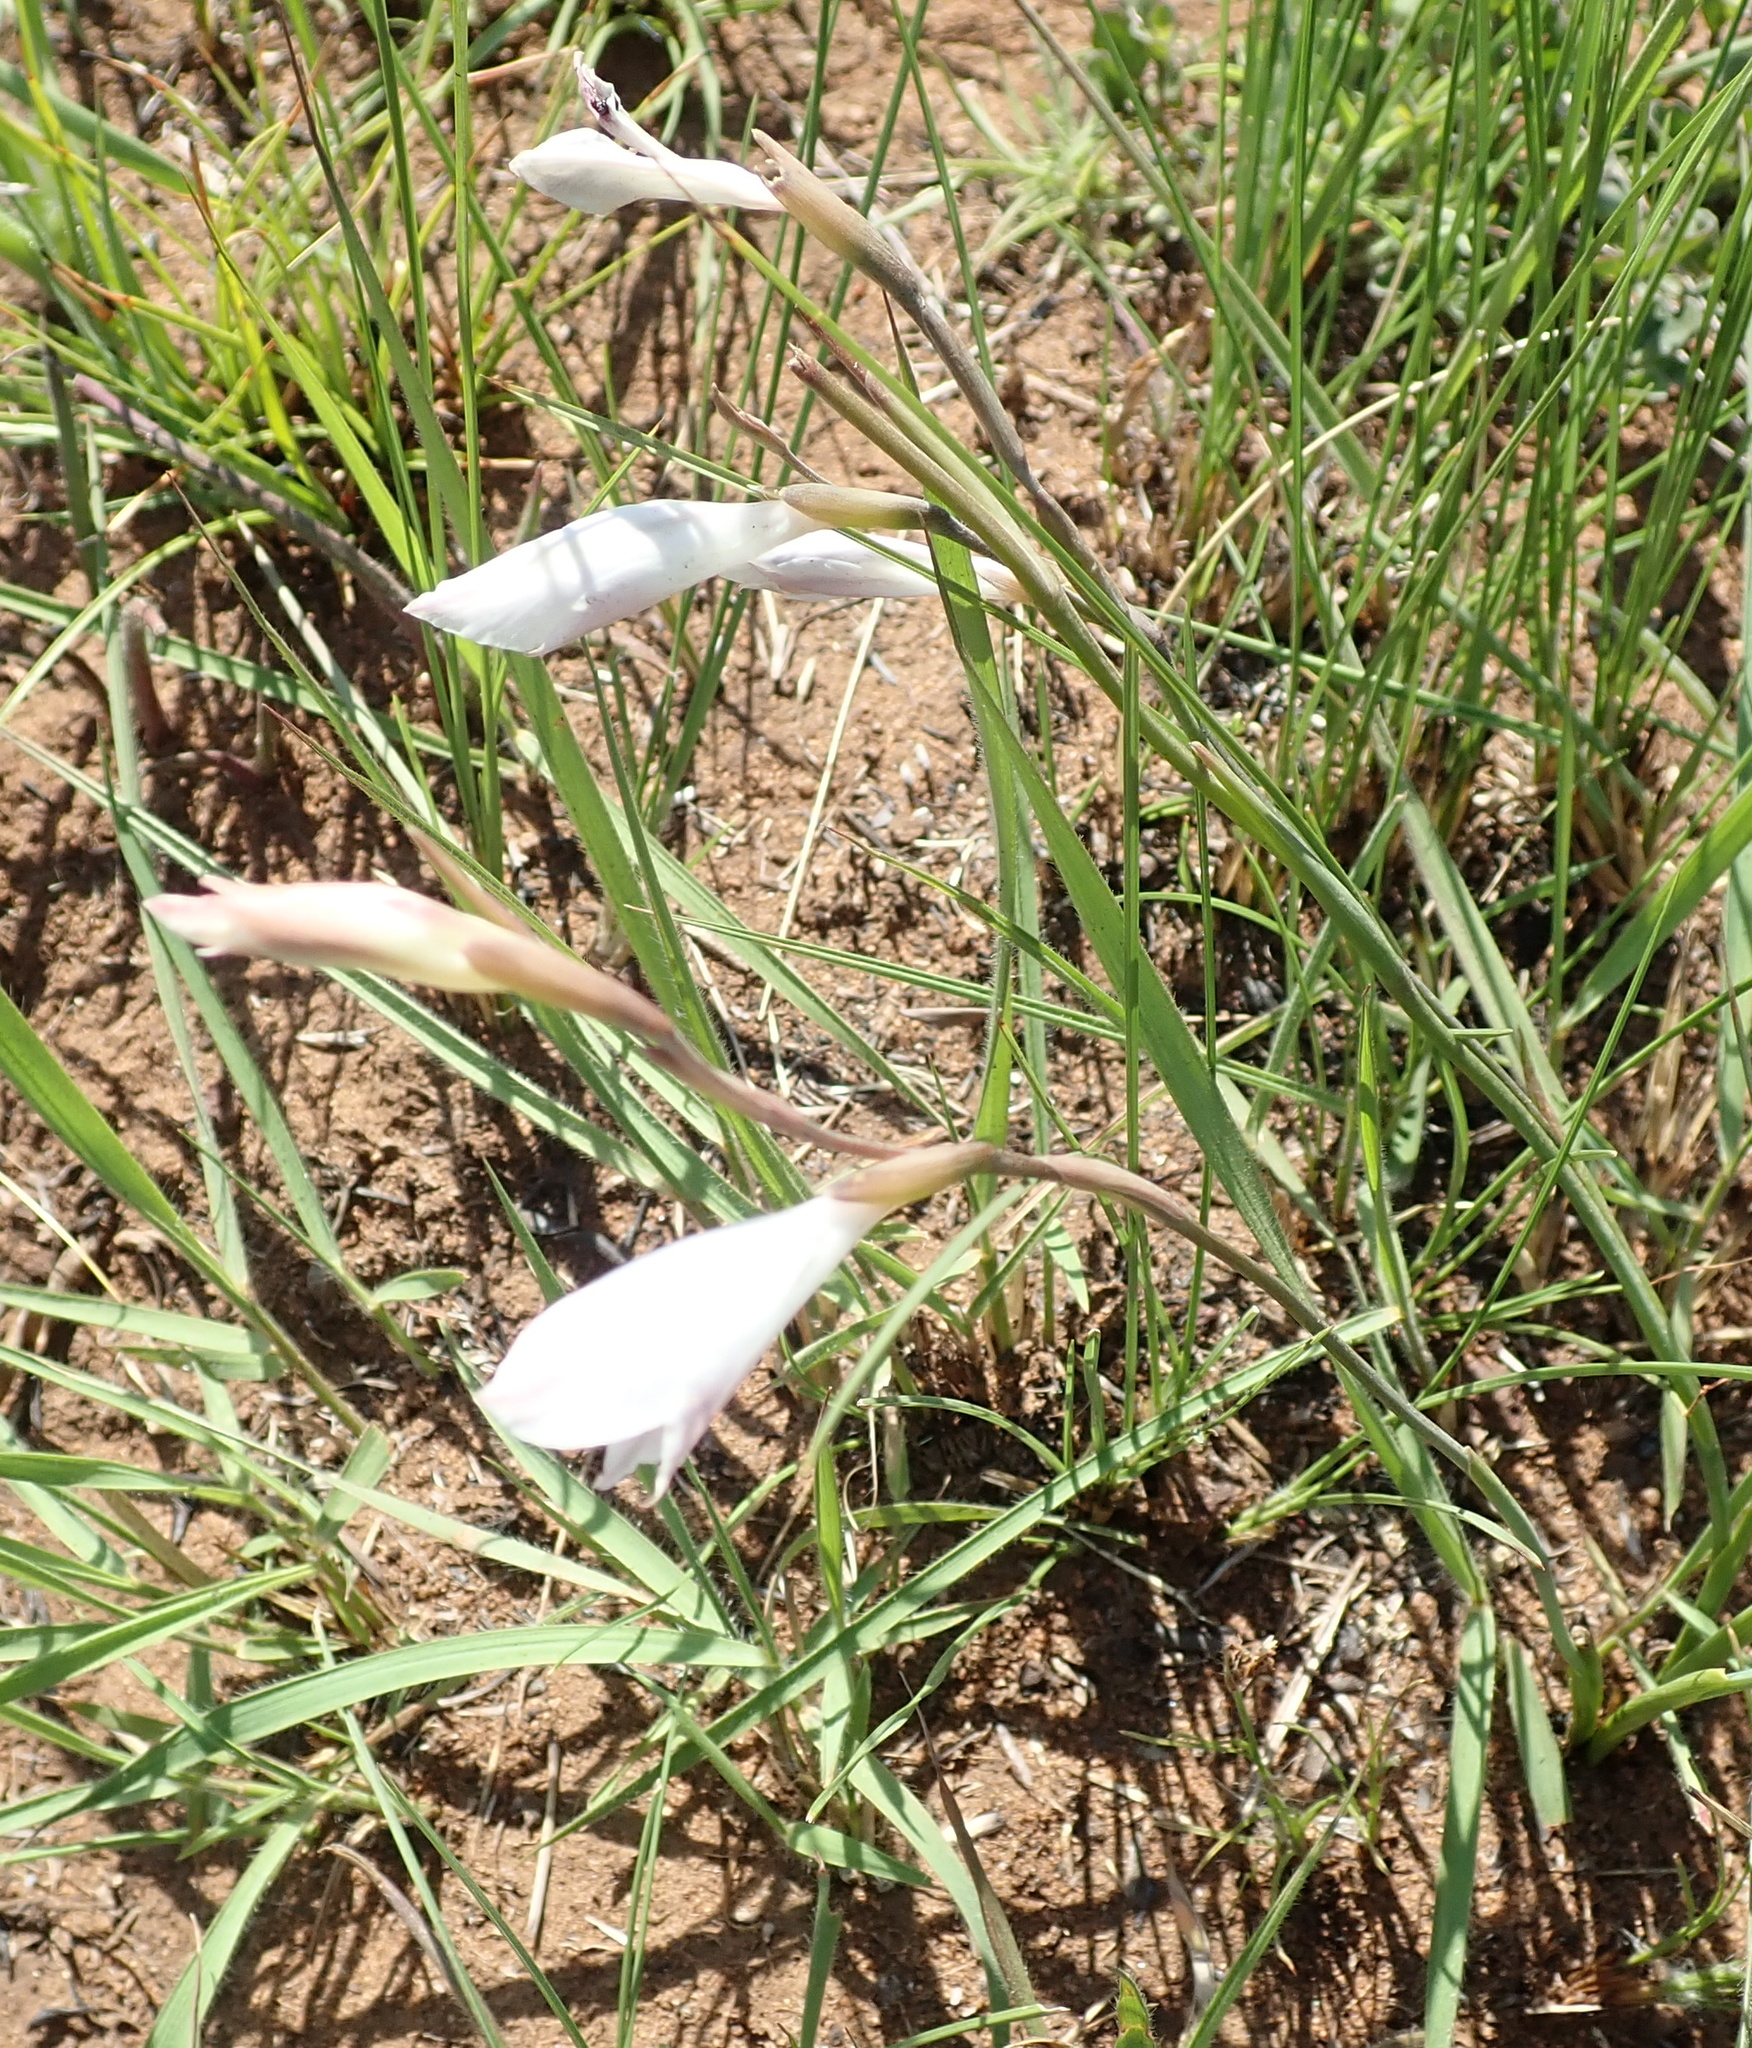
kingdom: Plantae
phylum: Tracheophyta
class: Liliopsida
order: Asparagales
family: Iridaceae
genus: Gladiolus
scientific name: Gladiolus inandensis
